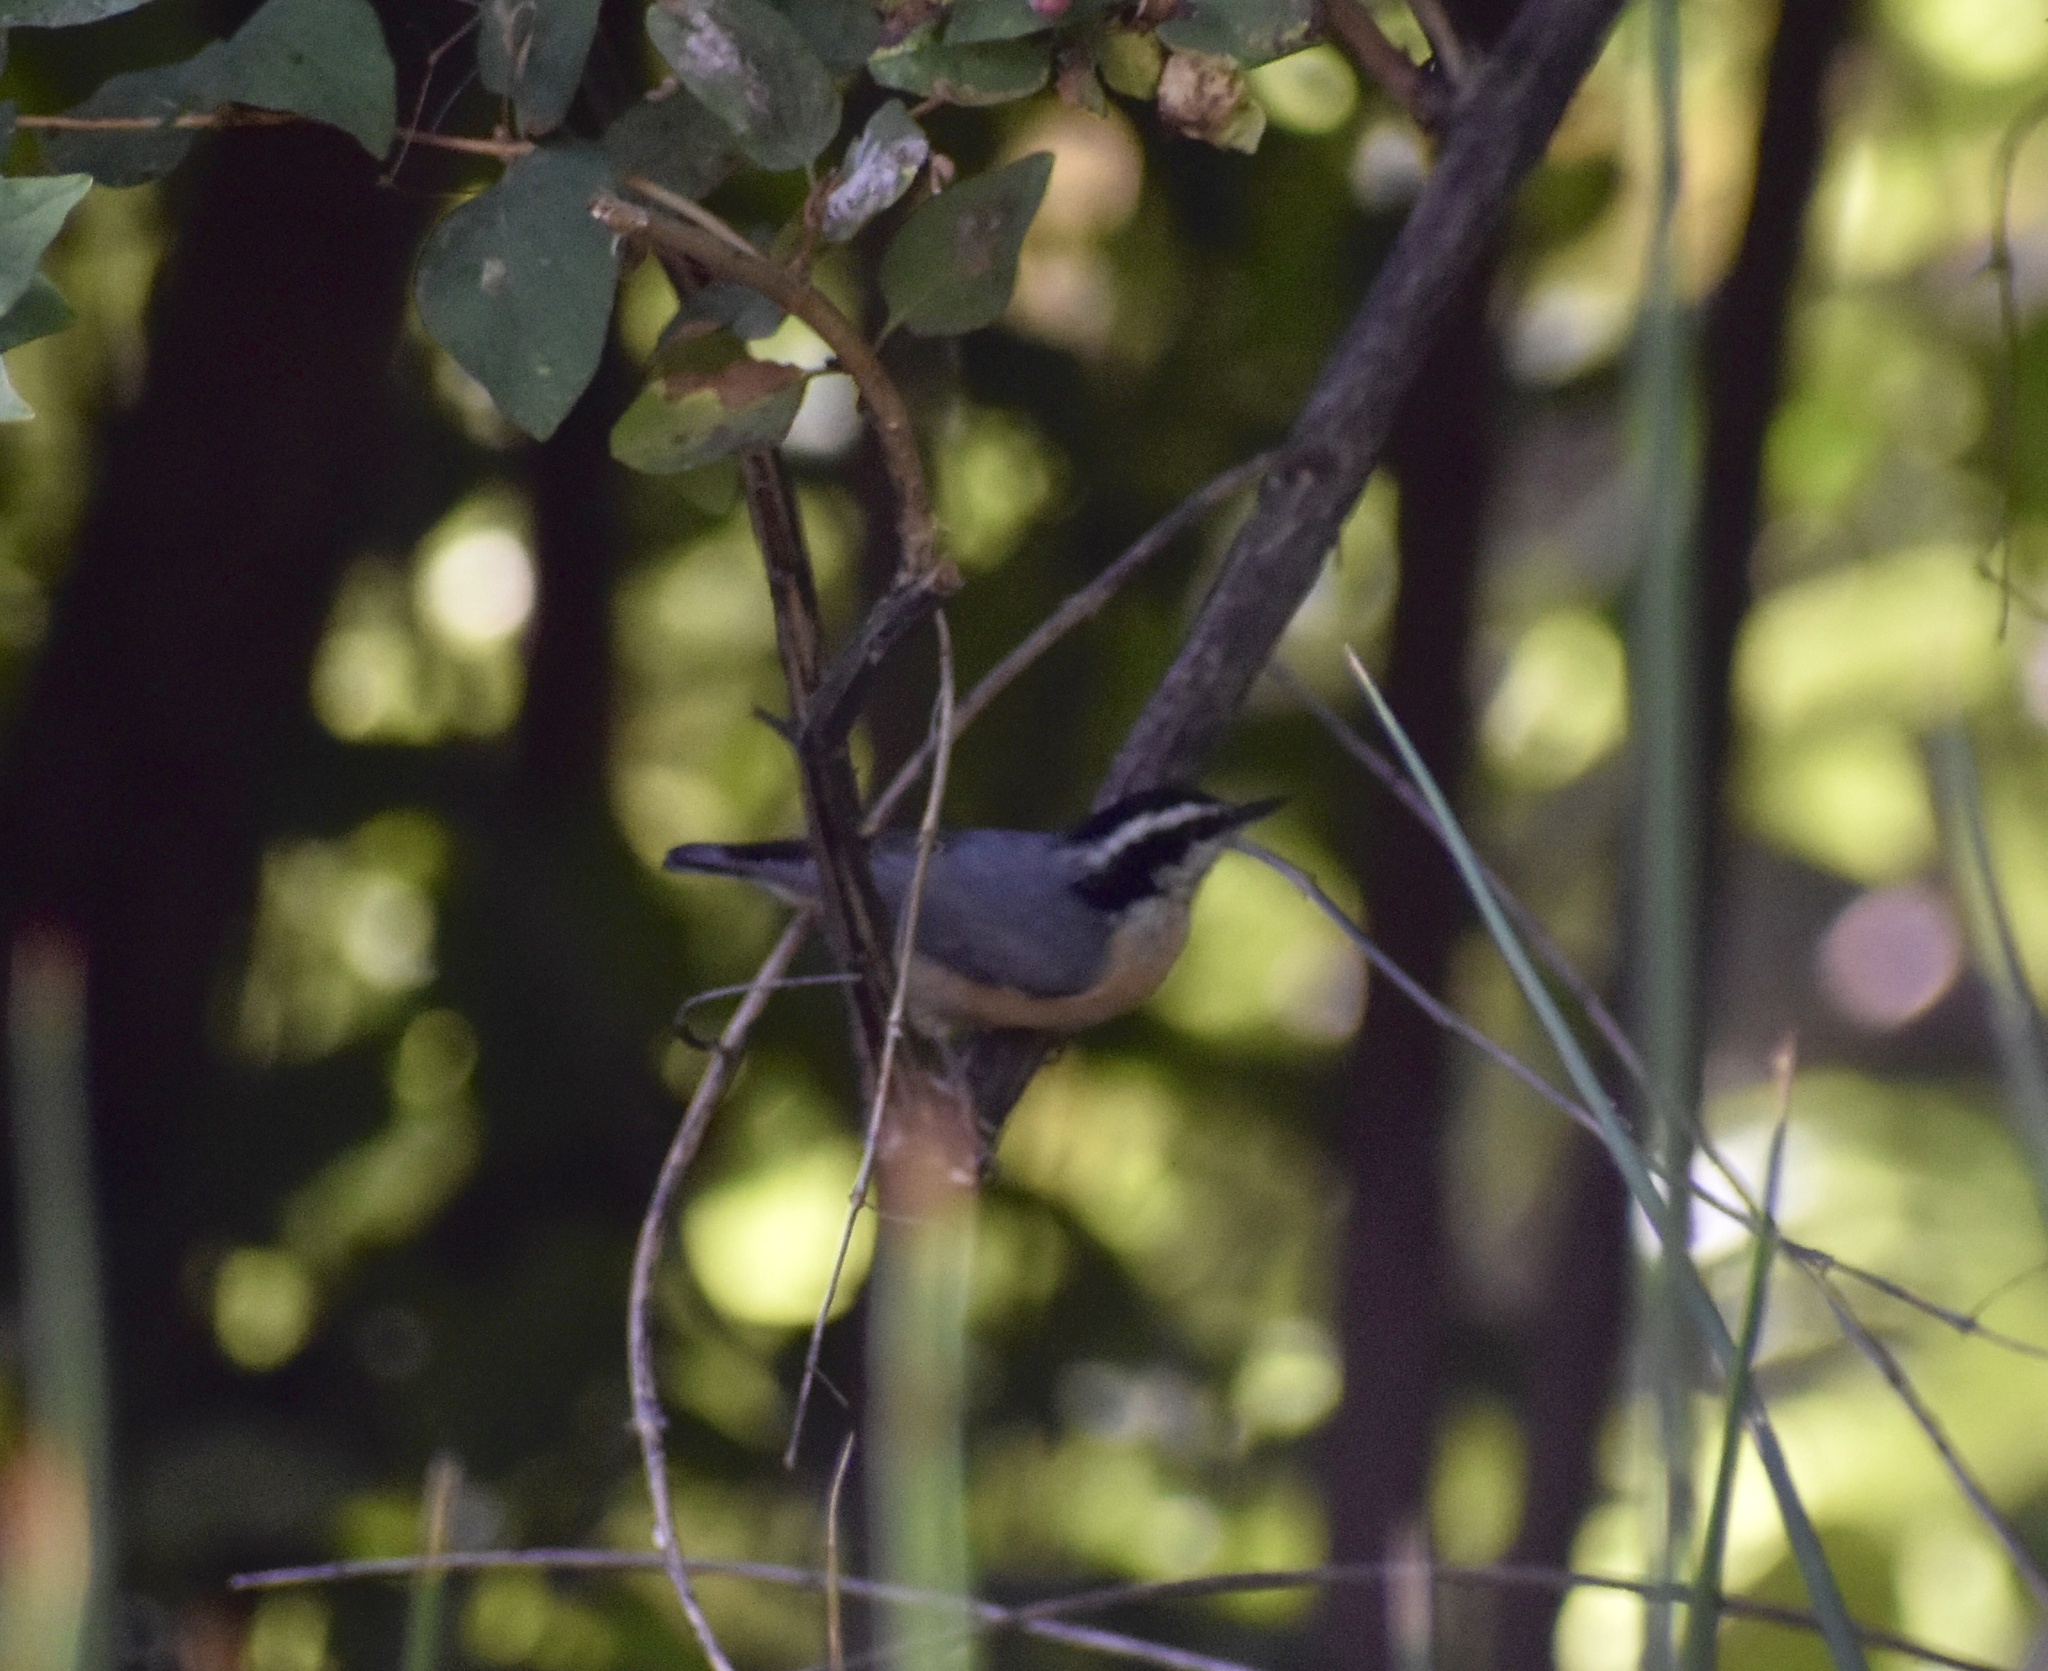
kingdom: Animalia
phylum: Chordata
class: Aves
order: Passeriformes
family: Sittidae
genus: Sitta
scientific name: Sitta canadensis
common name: Red-breasted nuthatch
